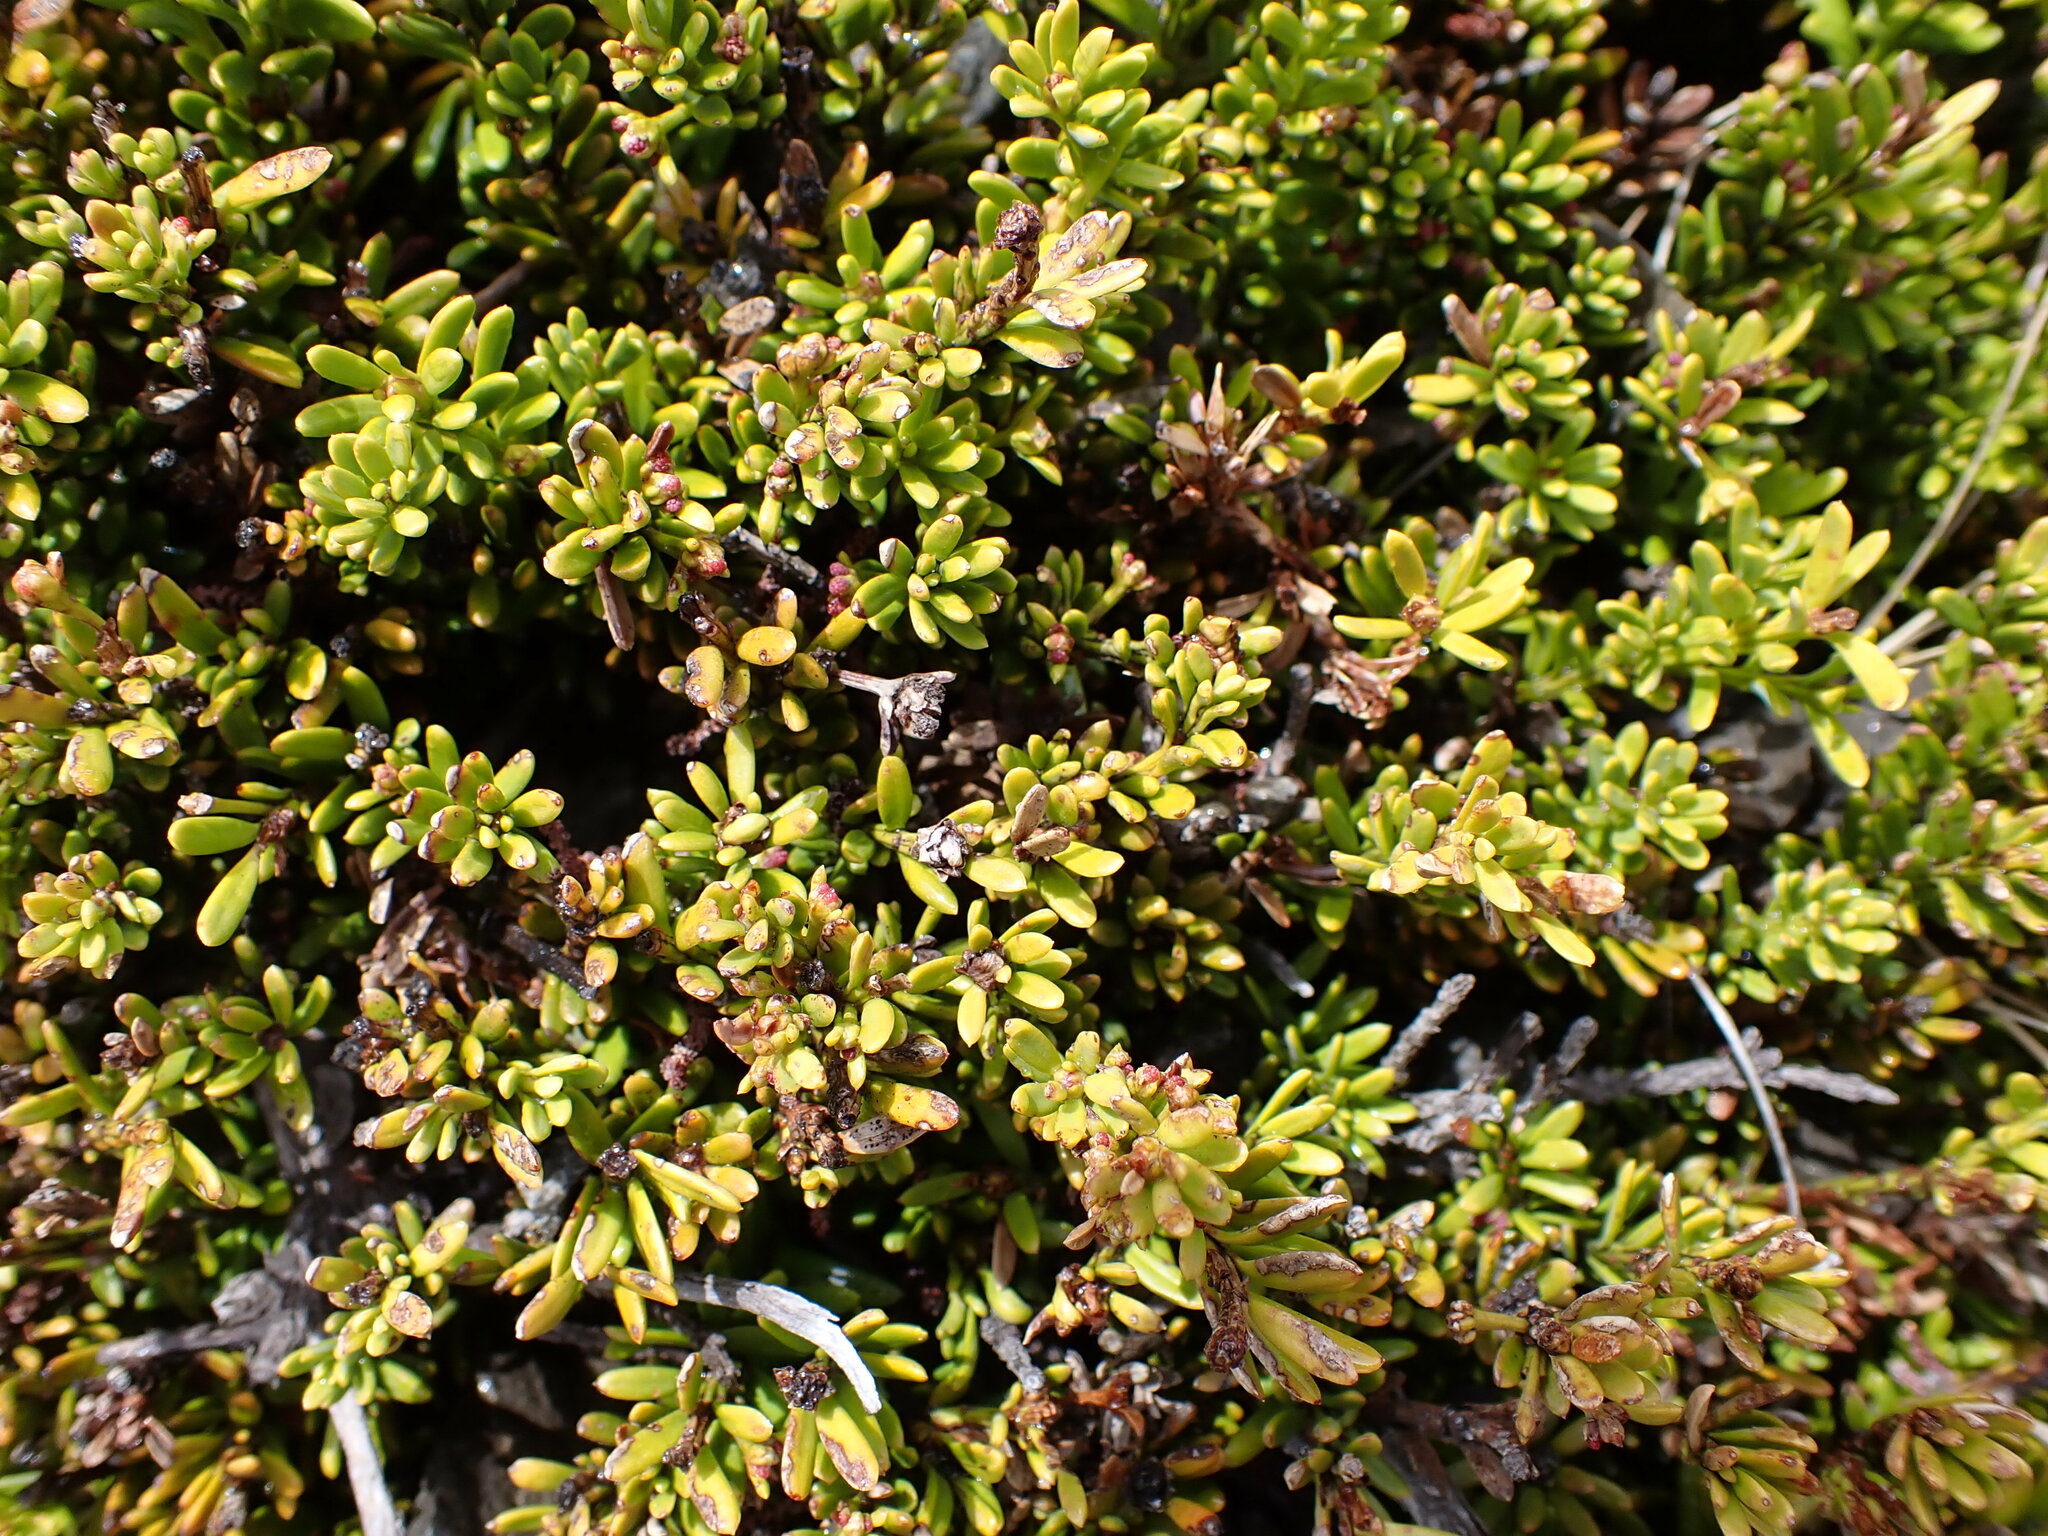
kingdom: Plantae
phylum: Tracheophyta
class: Pinopsida
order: Pinales
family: Podocarpaceae
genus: Podocarpus
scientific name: Podocarpus nivalis
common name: Alpine totara
